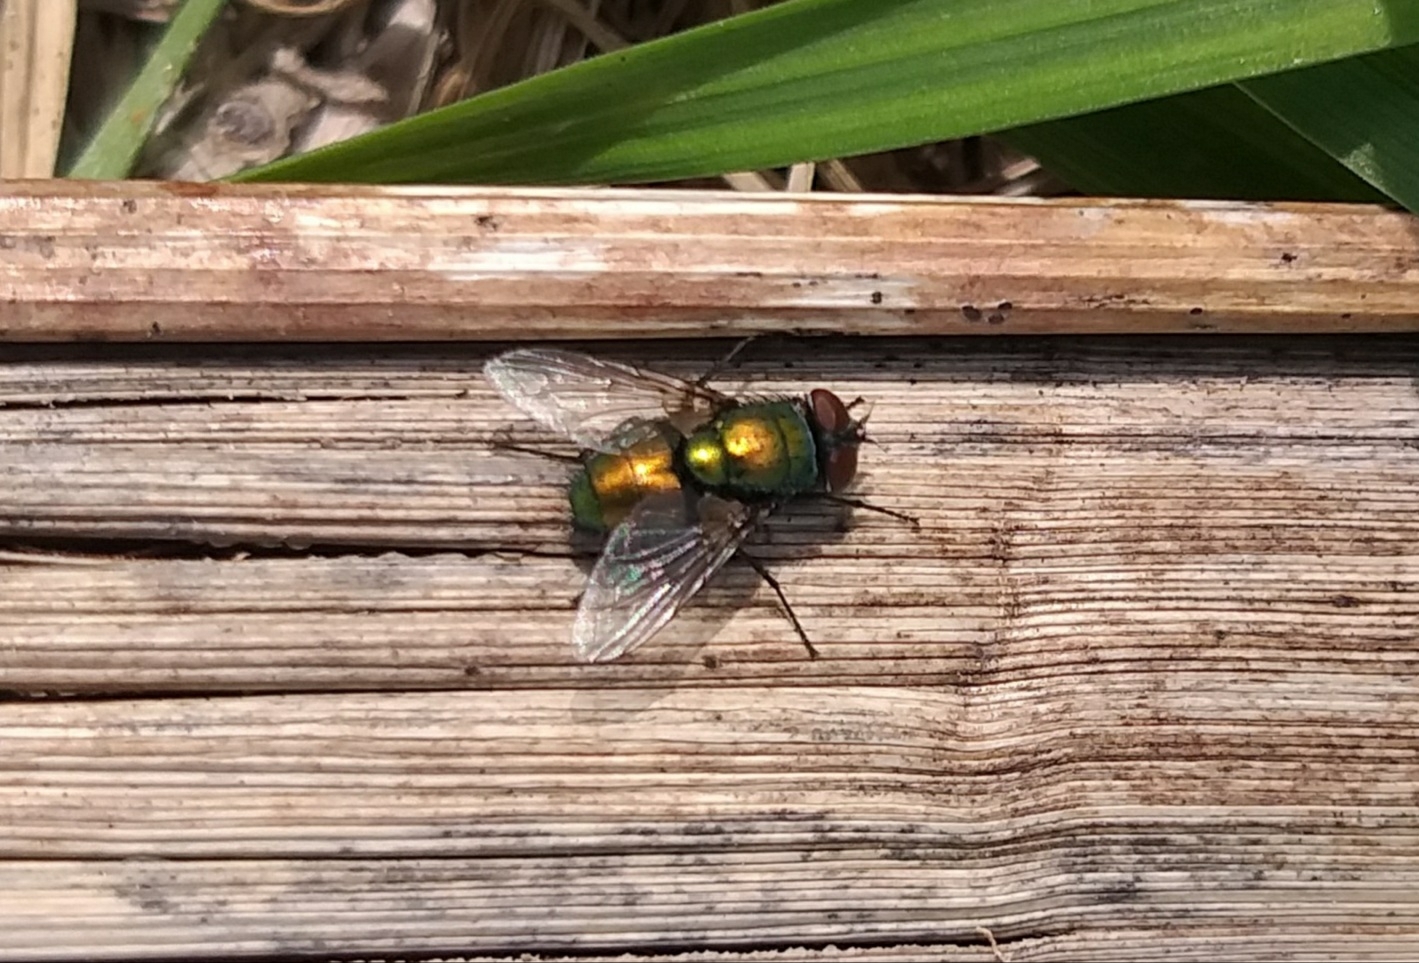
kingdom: Animalia
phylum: Arthropoda
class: Insecta
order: Diptera
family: Calliphoridae
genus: Lucilia
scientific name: Lucilia sericata
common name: Blow fly
